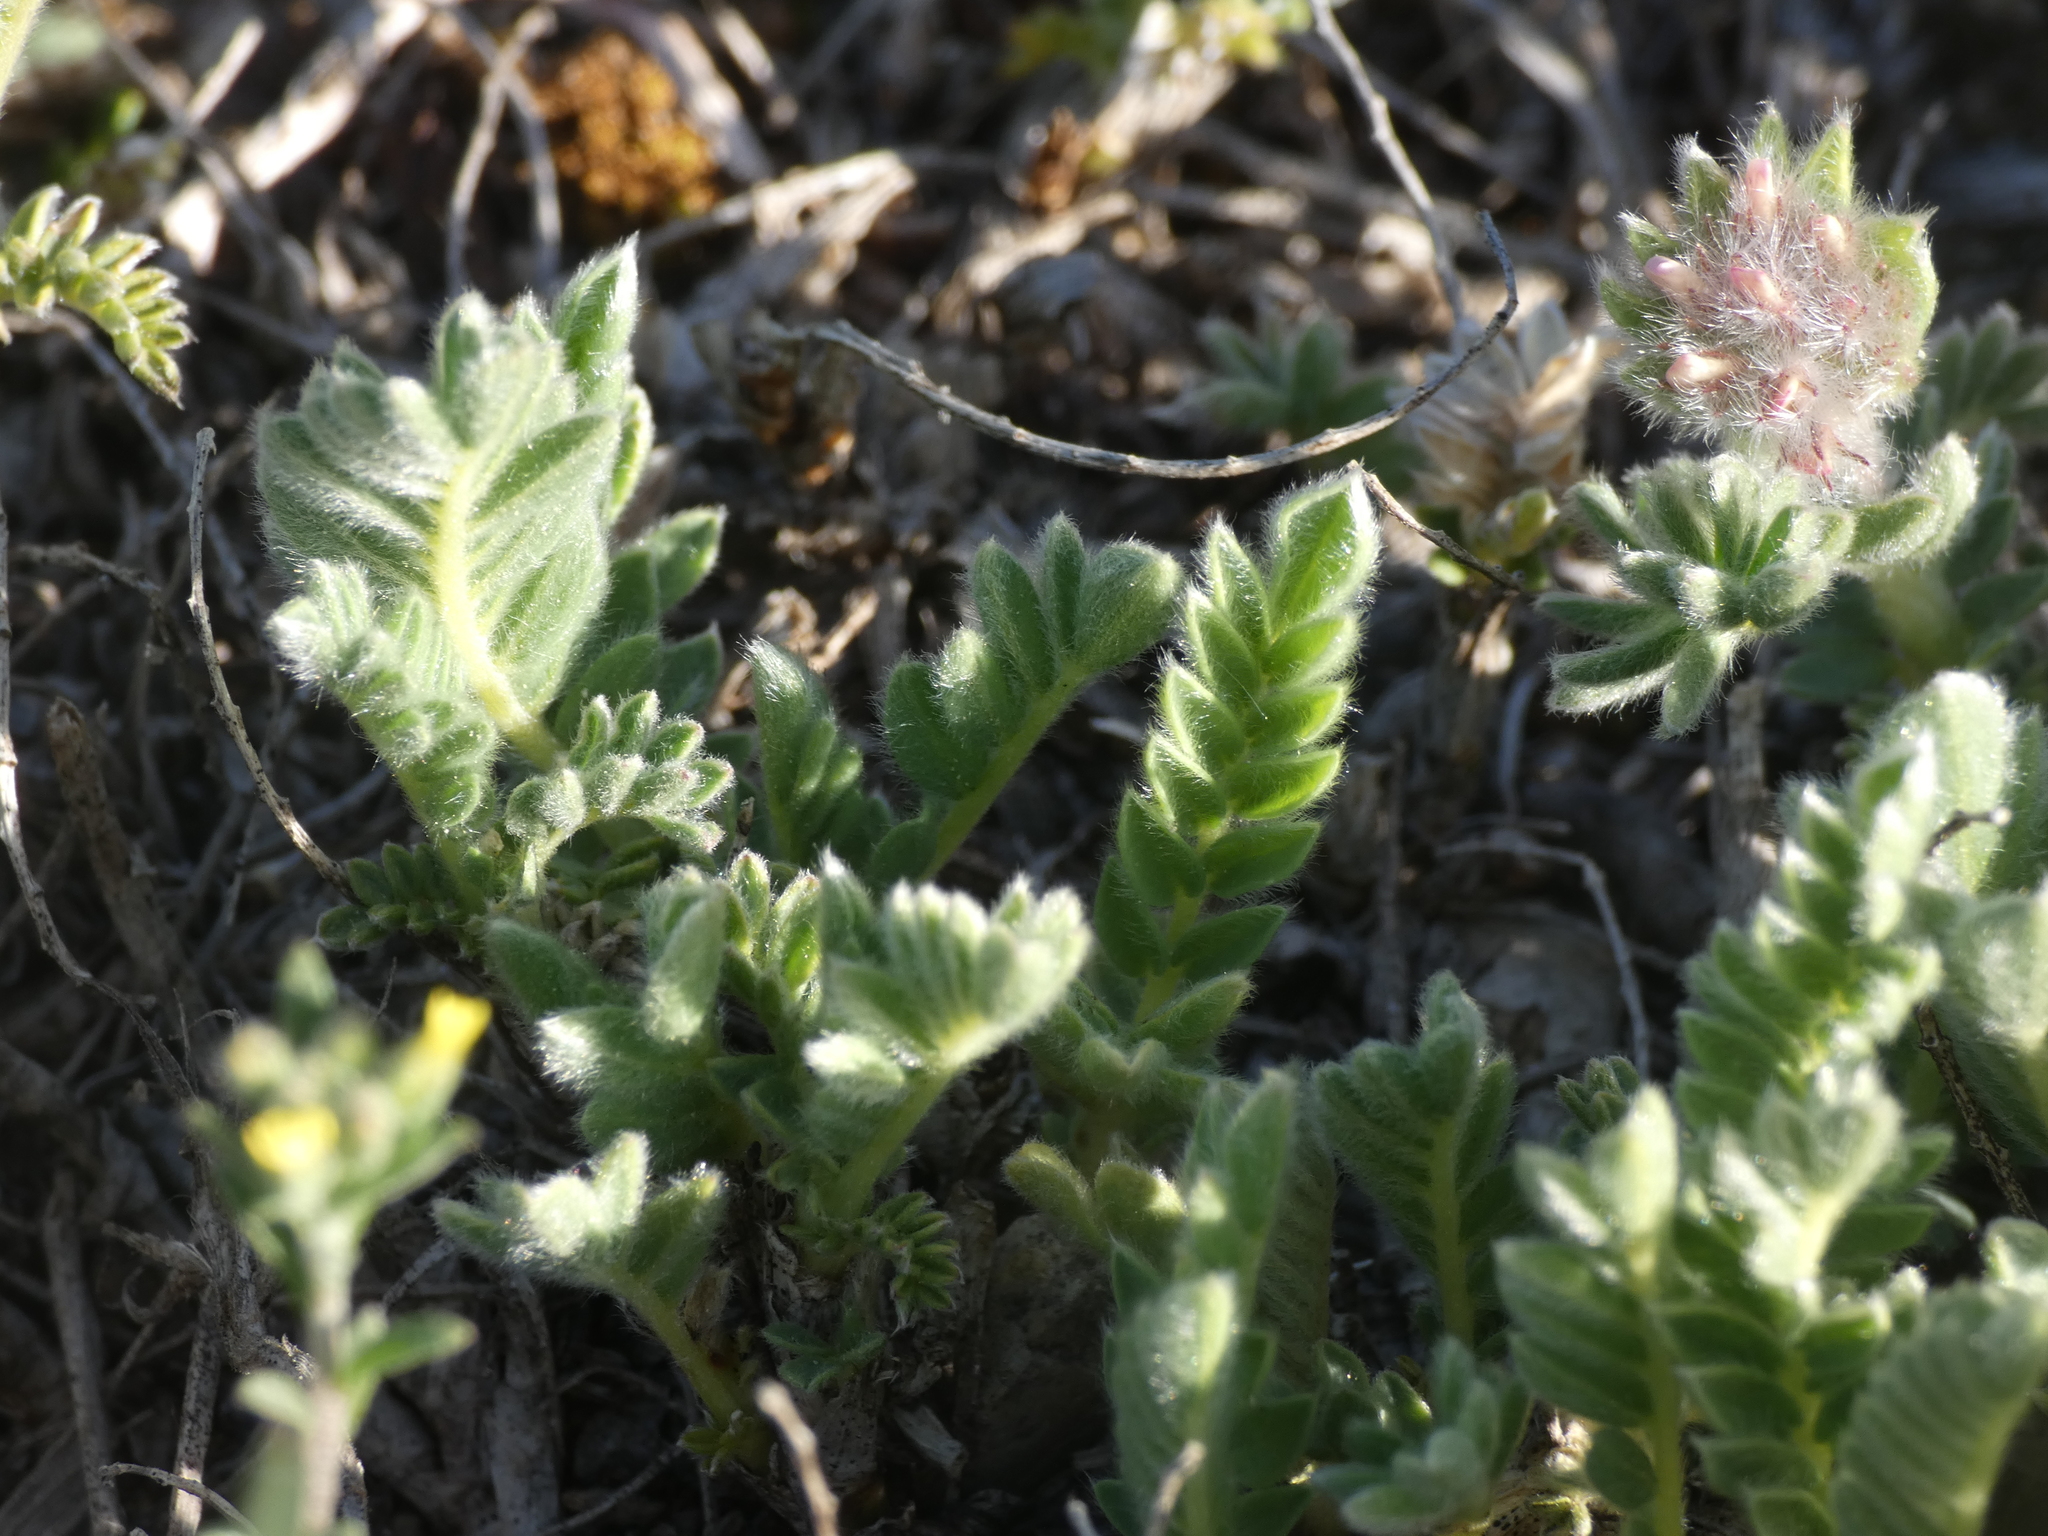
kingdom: Plantae
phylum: Tracheophyta
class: Magnoliopsida
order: Fabales
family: Fabaceae
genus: Anthyllis
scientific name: Anthyllis montana
